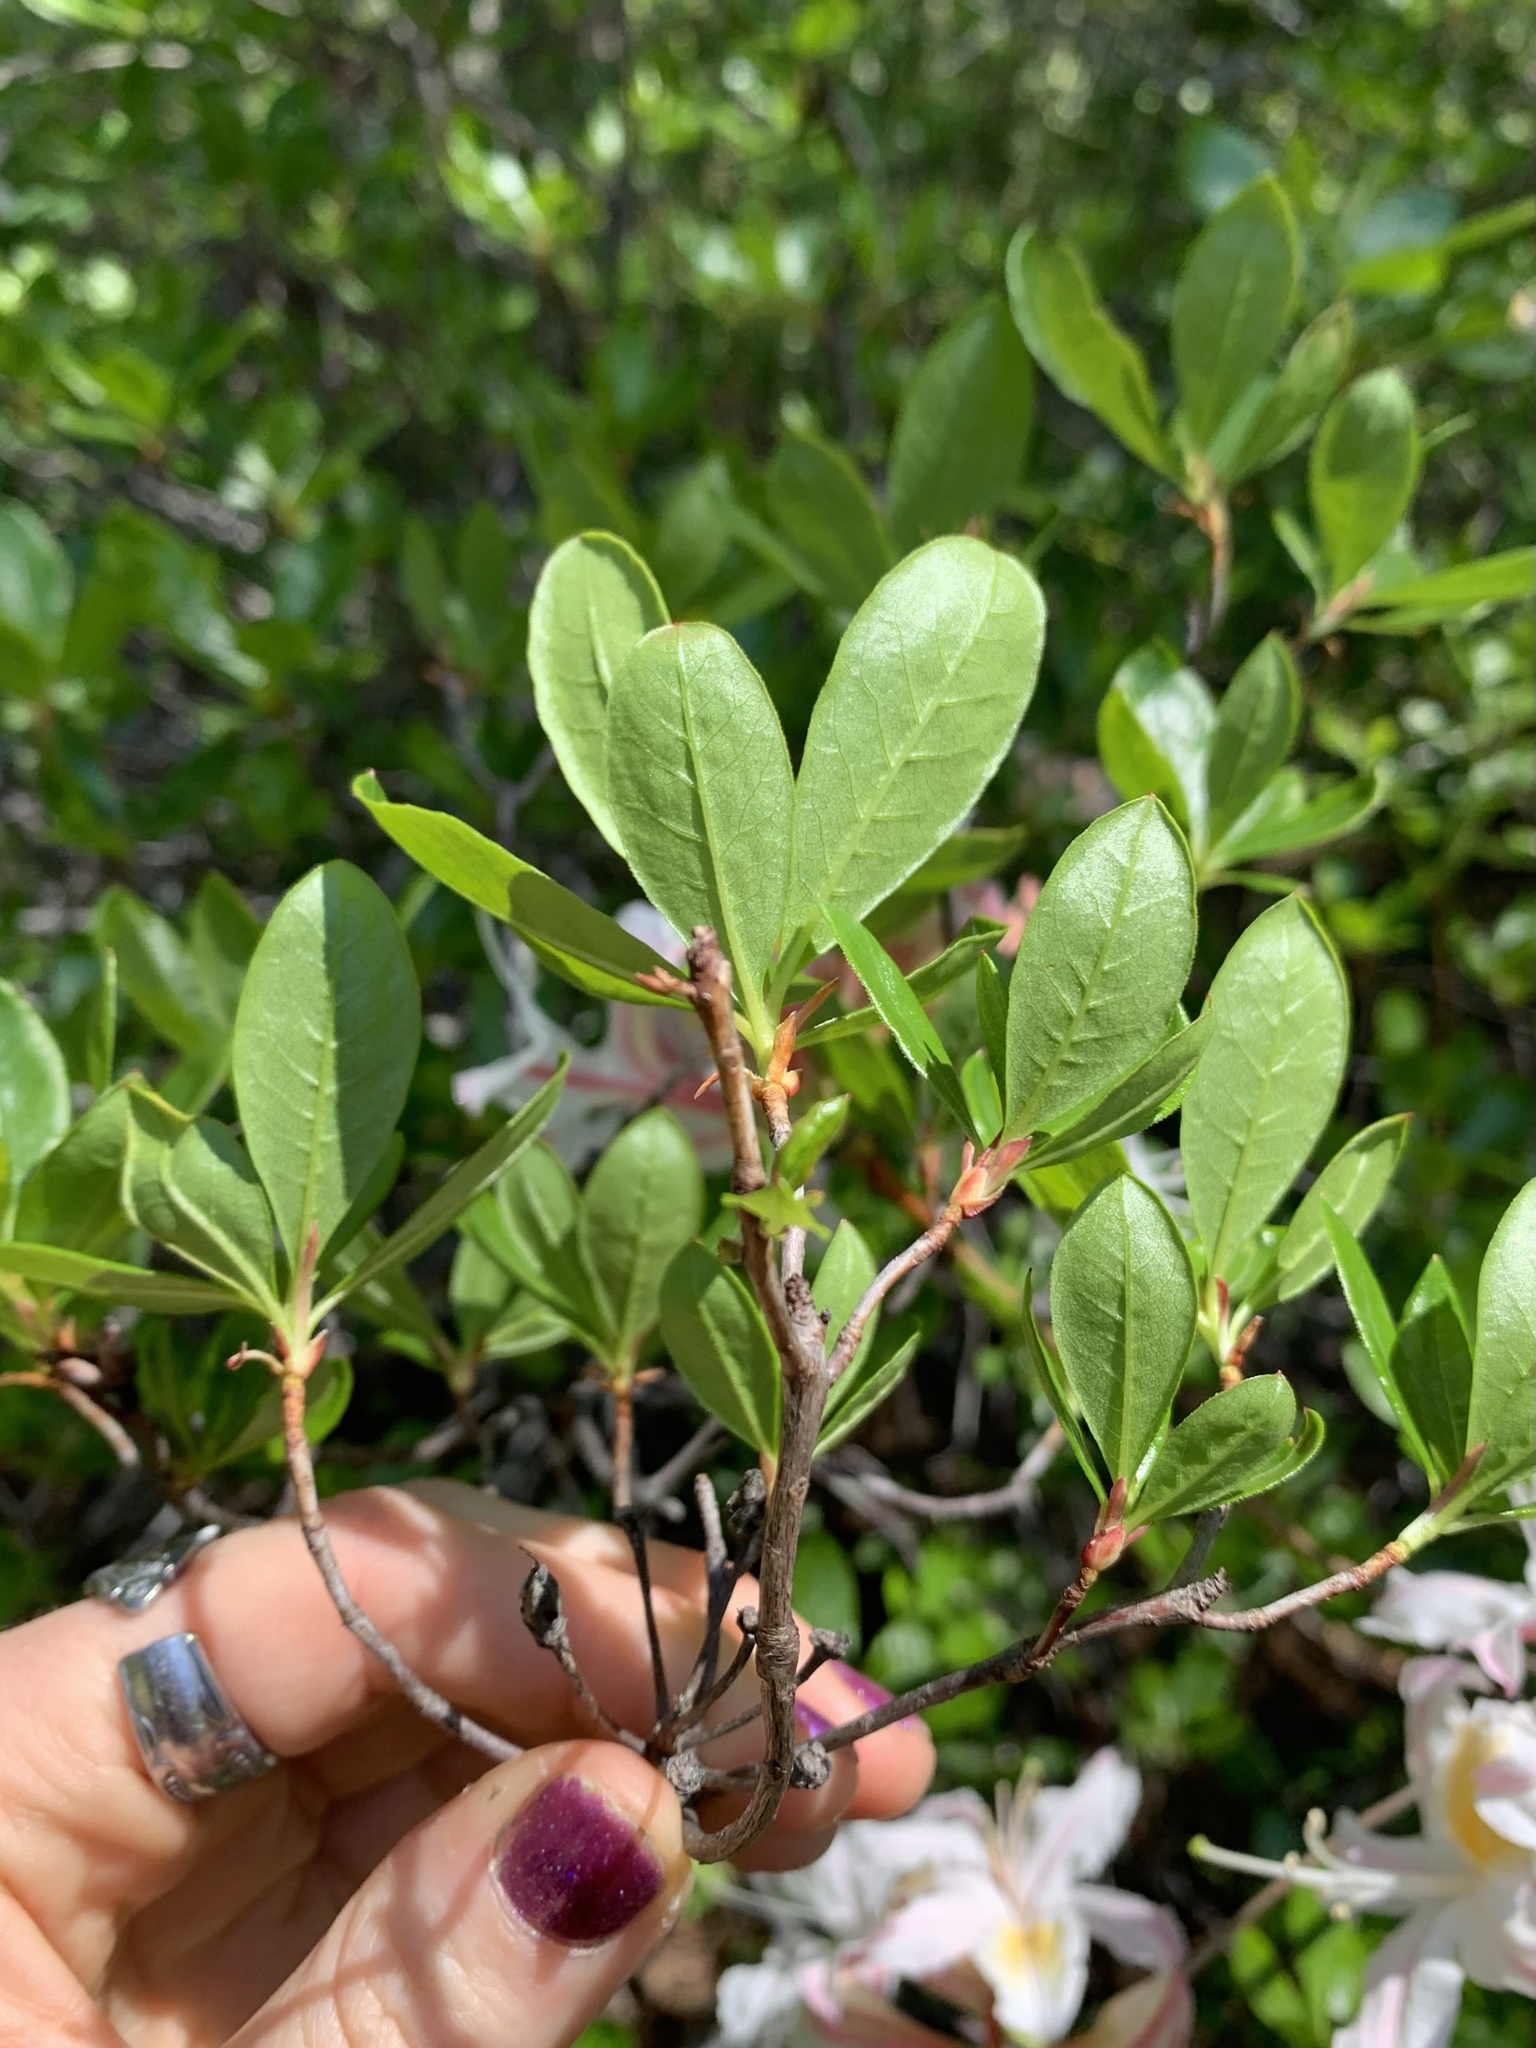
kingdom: Plantae
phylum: Tracheophyta
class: Magnoliopsida
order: Ericales
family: Ericaceae
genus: Rhododendron
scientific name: Rhododendron occidentale
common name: Western azalea
